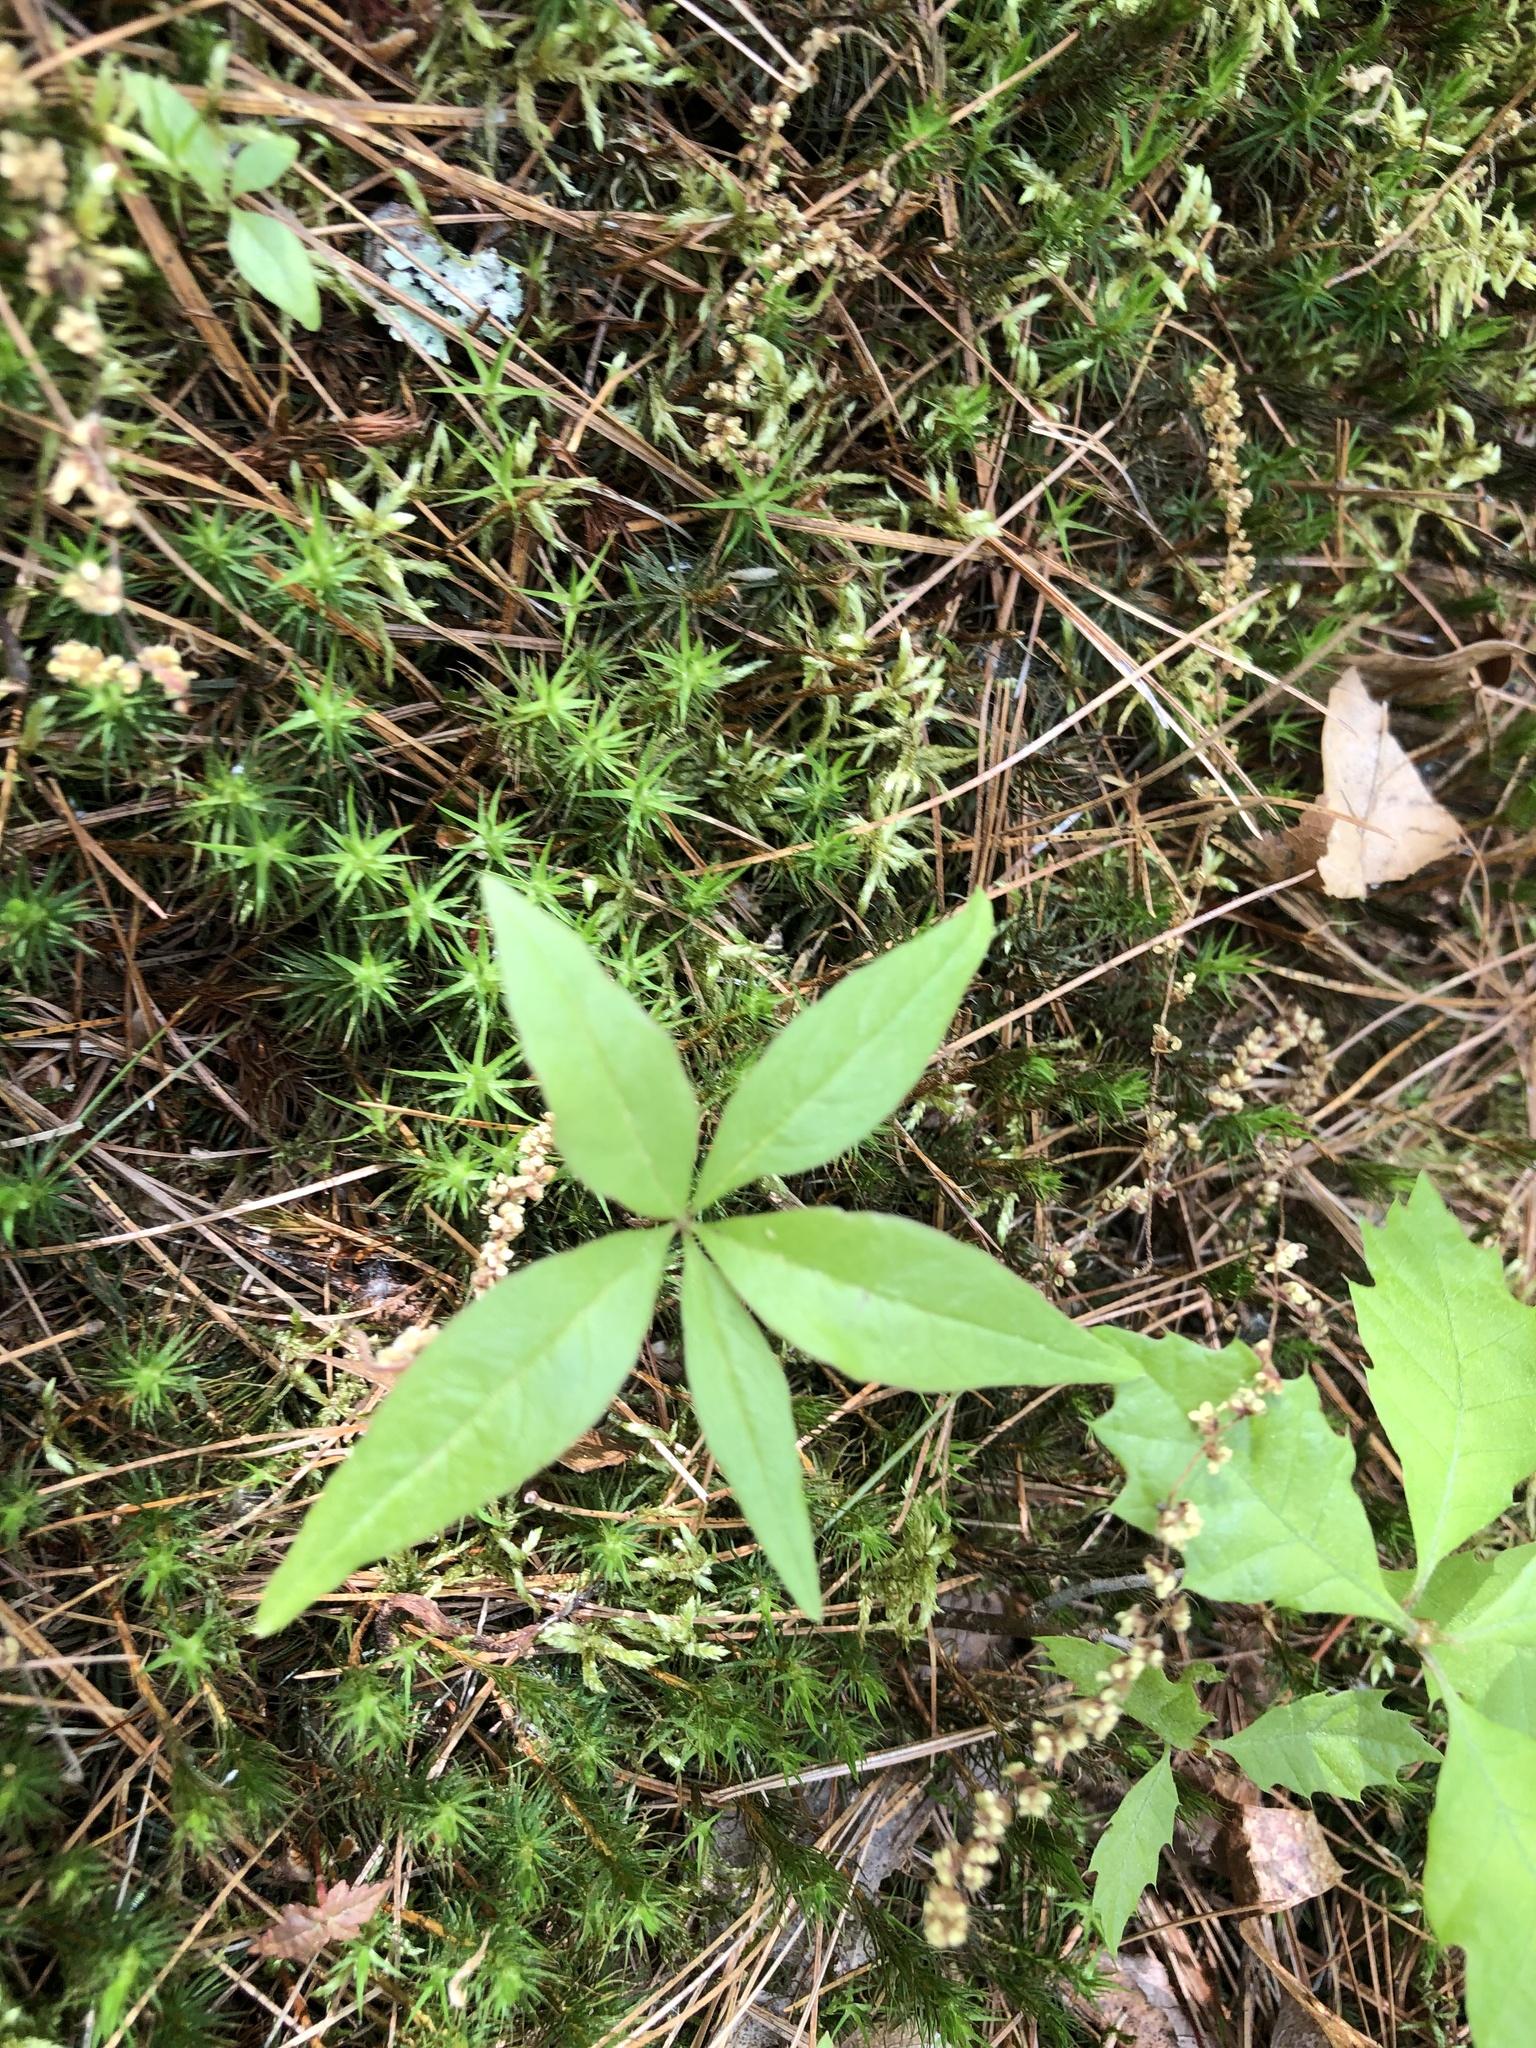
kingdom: Plantae
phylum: Tracheophyta
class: Magnoliopsida
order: Ericales
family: Primulaceae
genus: Lysimachia
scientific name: Lysimachia borealis
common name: American starflower
